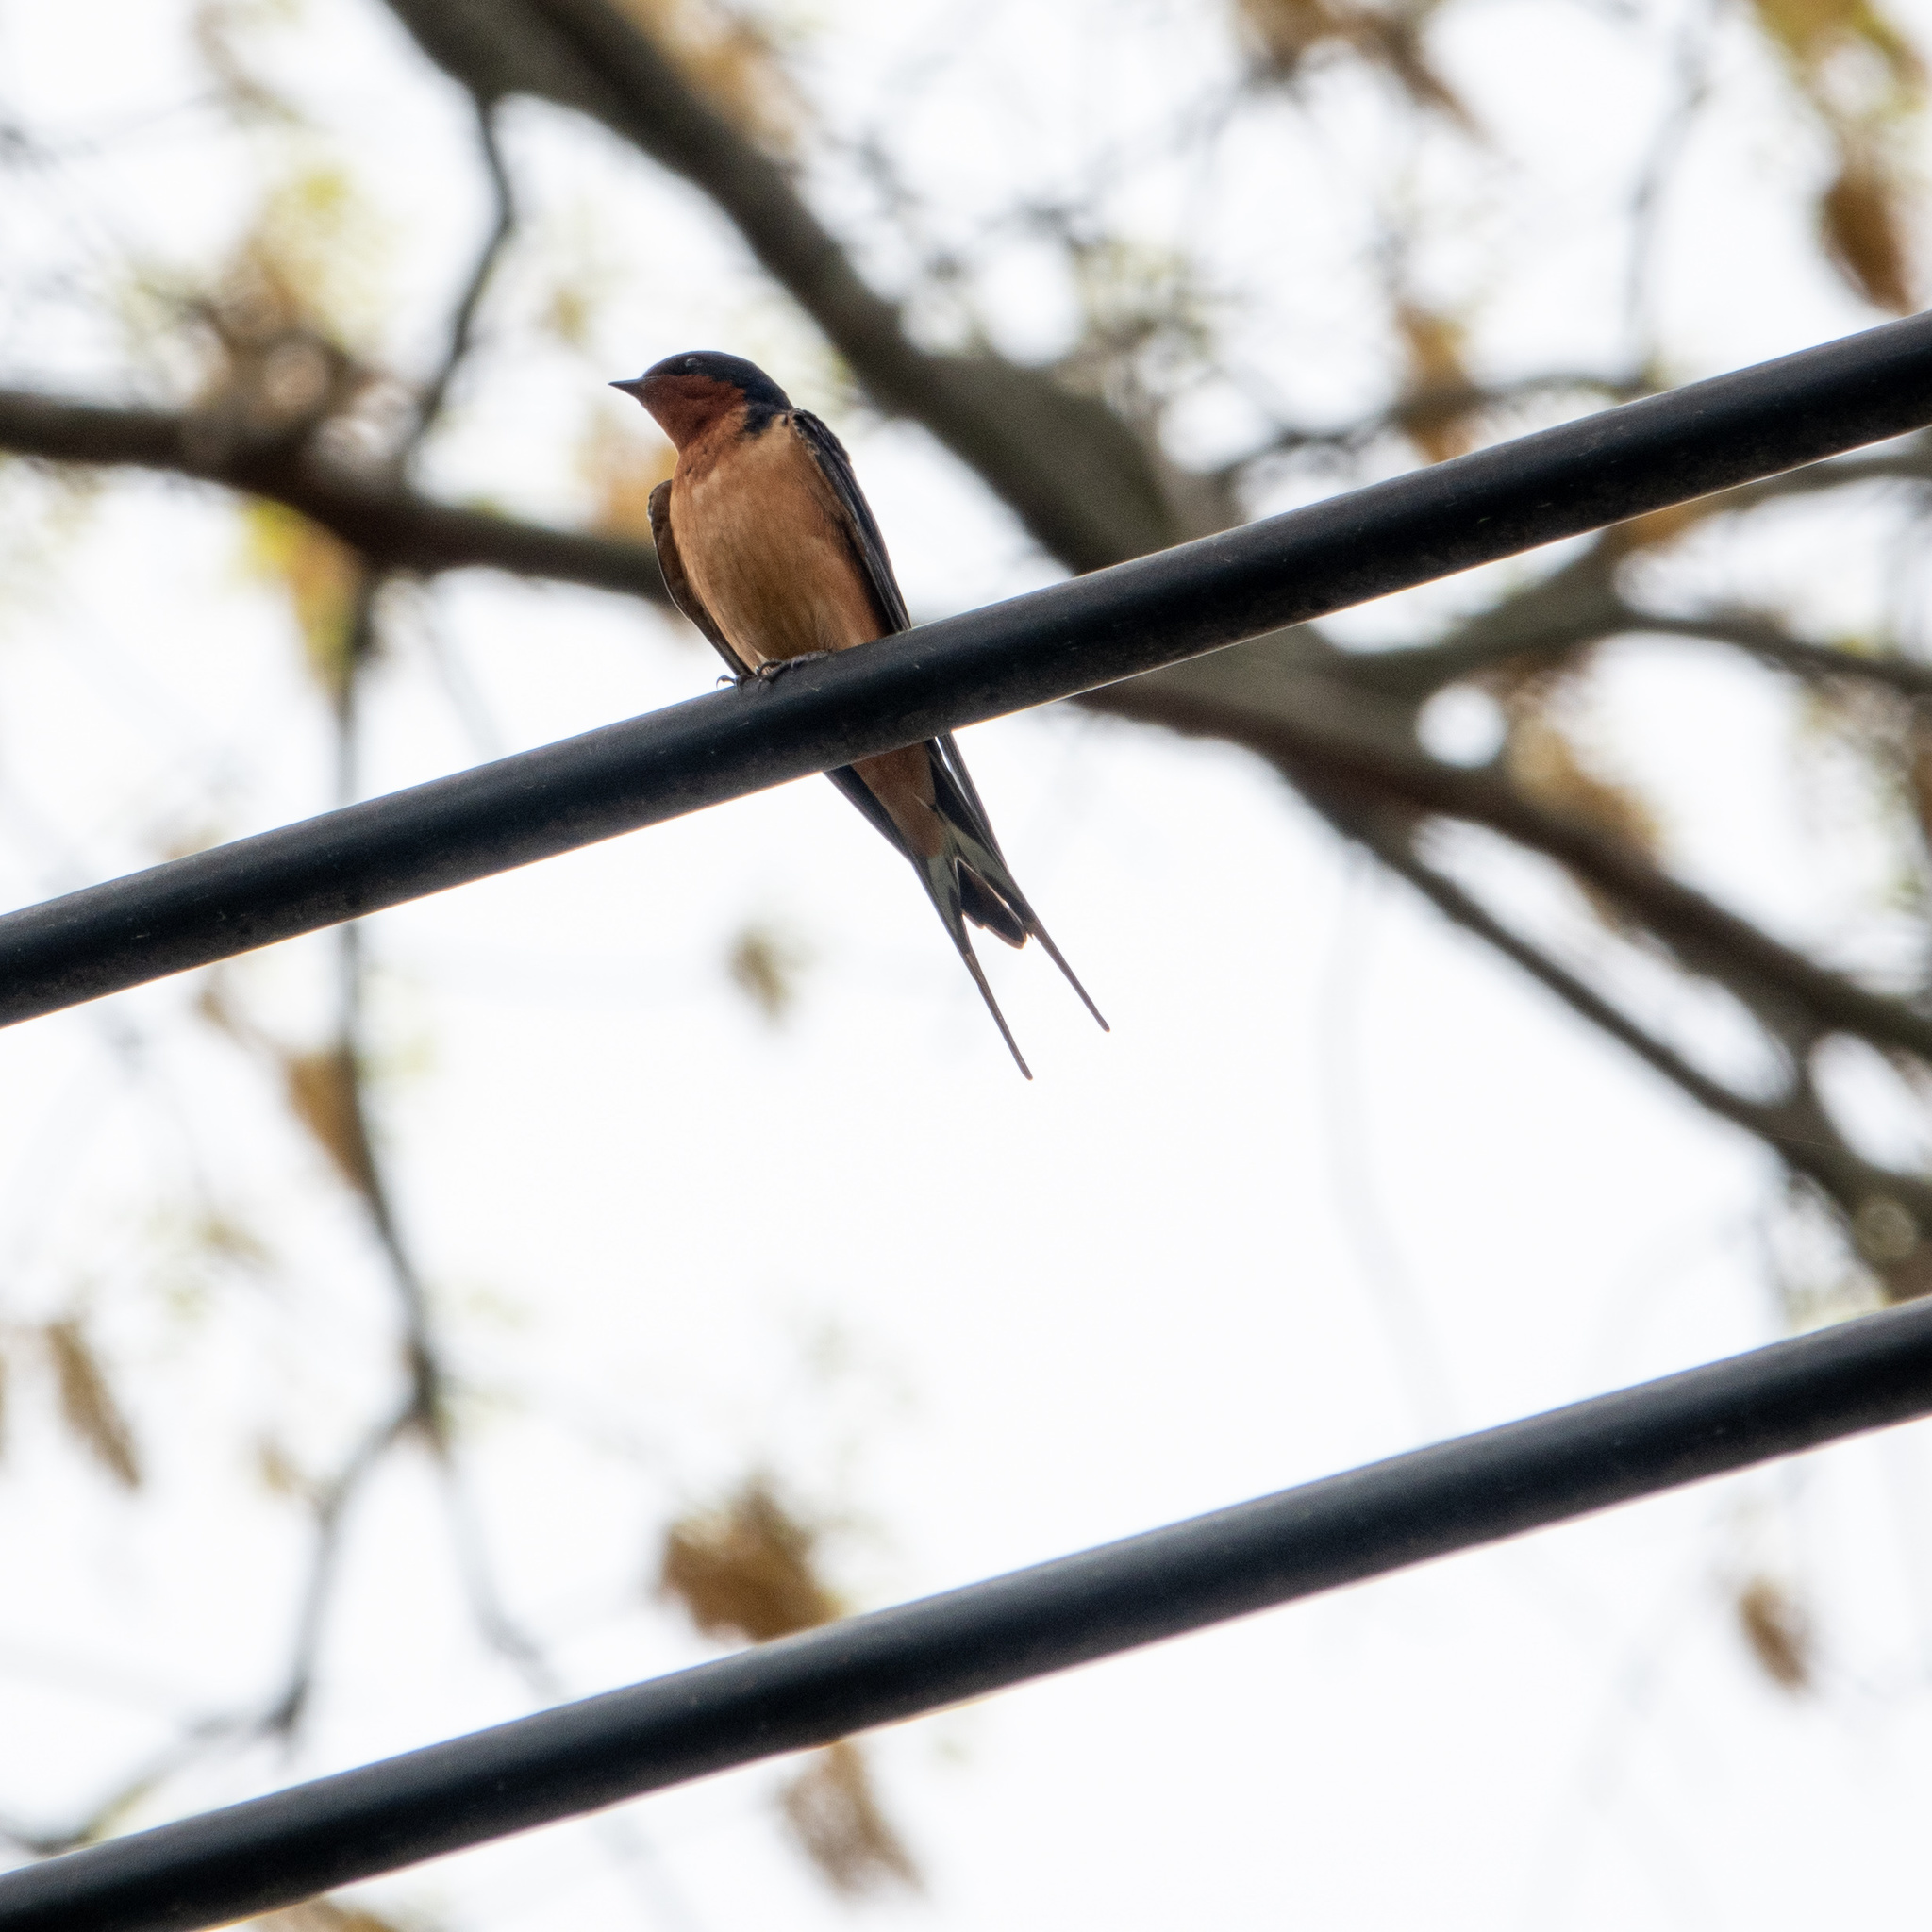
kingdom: Animalia
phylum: Chordata
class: Aves
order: Passeriformes
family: Hirundinidae
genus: Hirundo
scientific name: Hirundo rustica
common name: Barn swallow
